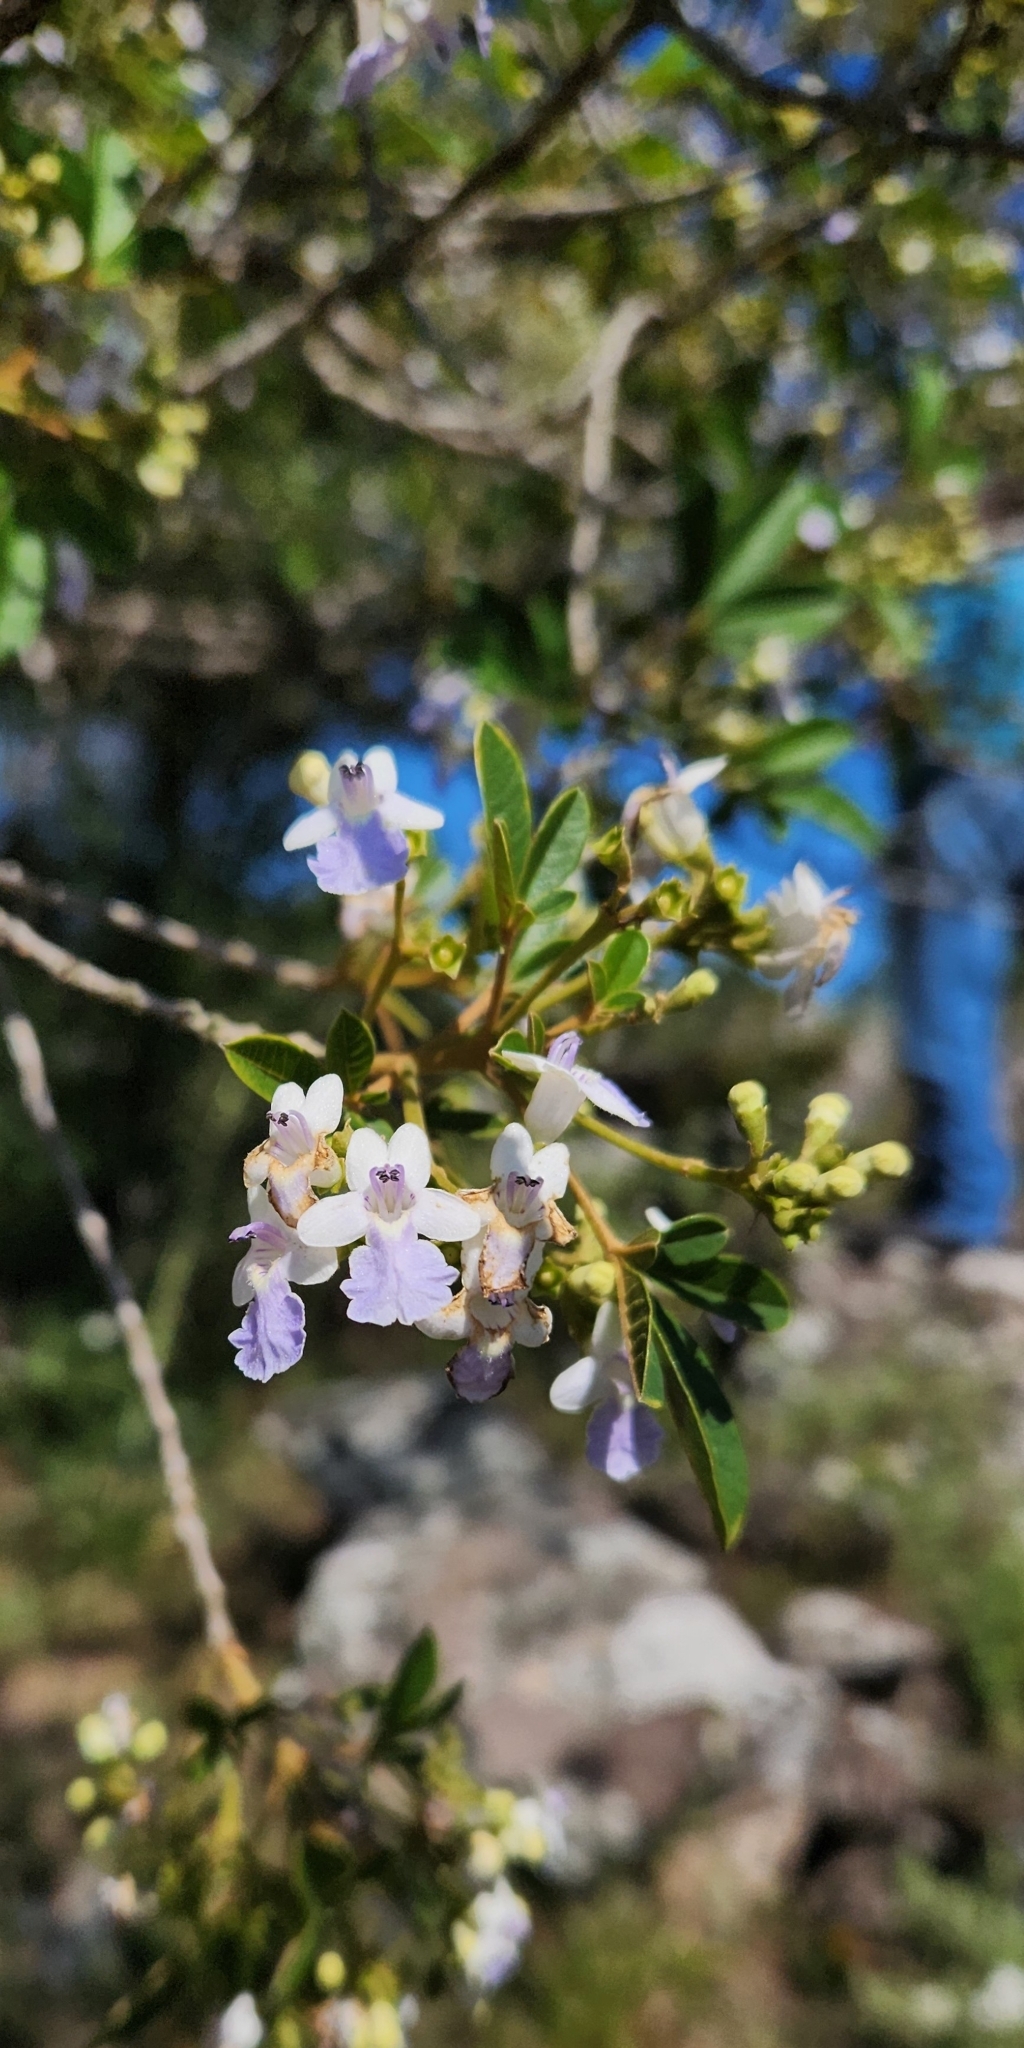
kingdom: Plantae
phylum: Tracheophyta
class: Magnoliopsida
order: Lamiales
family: Lamiaceae
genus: Vitex
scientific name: Vitex megapotamica
